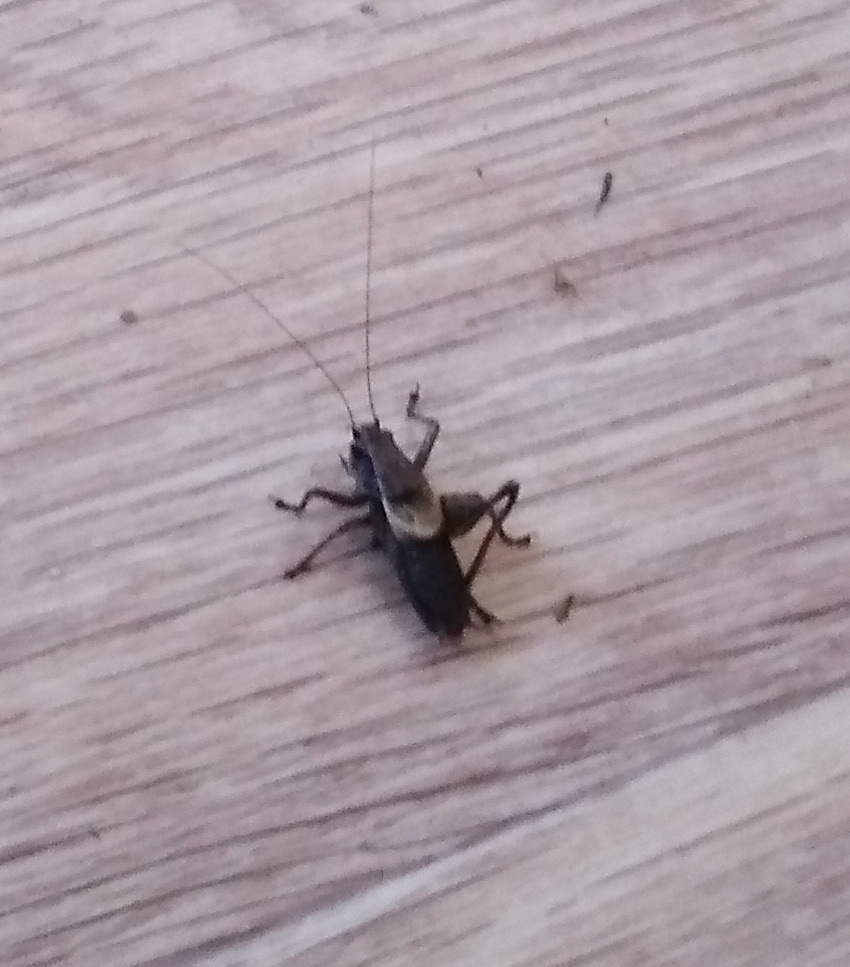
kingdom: Animalia
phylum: Arthropoda
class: Insecta
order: Orthoptera
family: Tettigoniidae
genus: Pholidoptera
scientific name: Pholidoptera griseoaptera
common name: Dark bush-cricket
